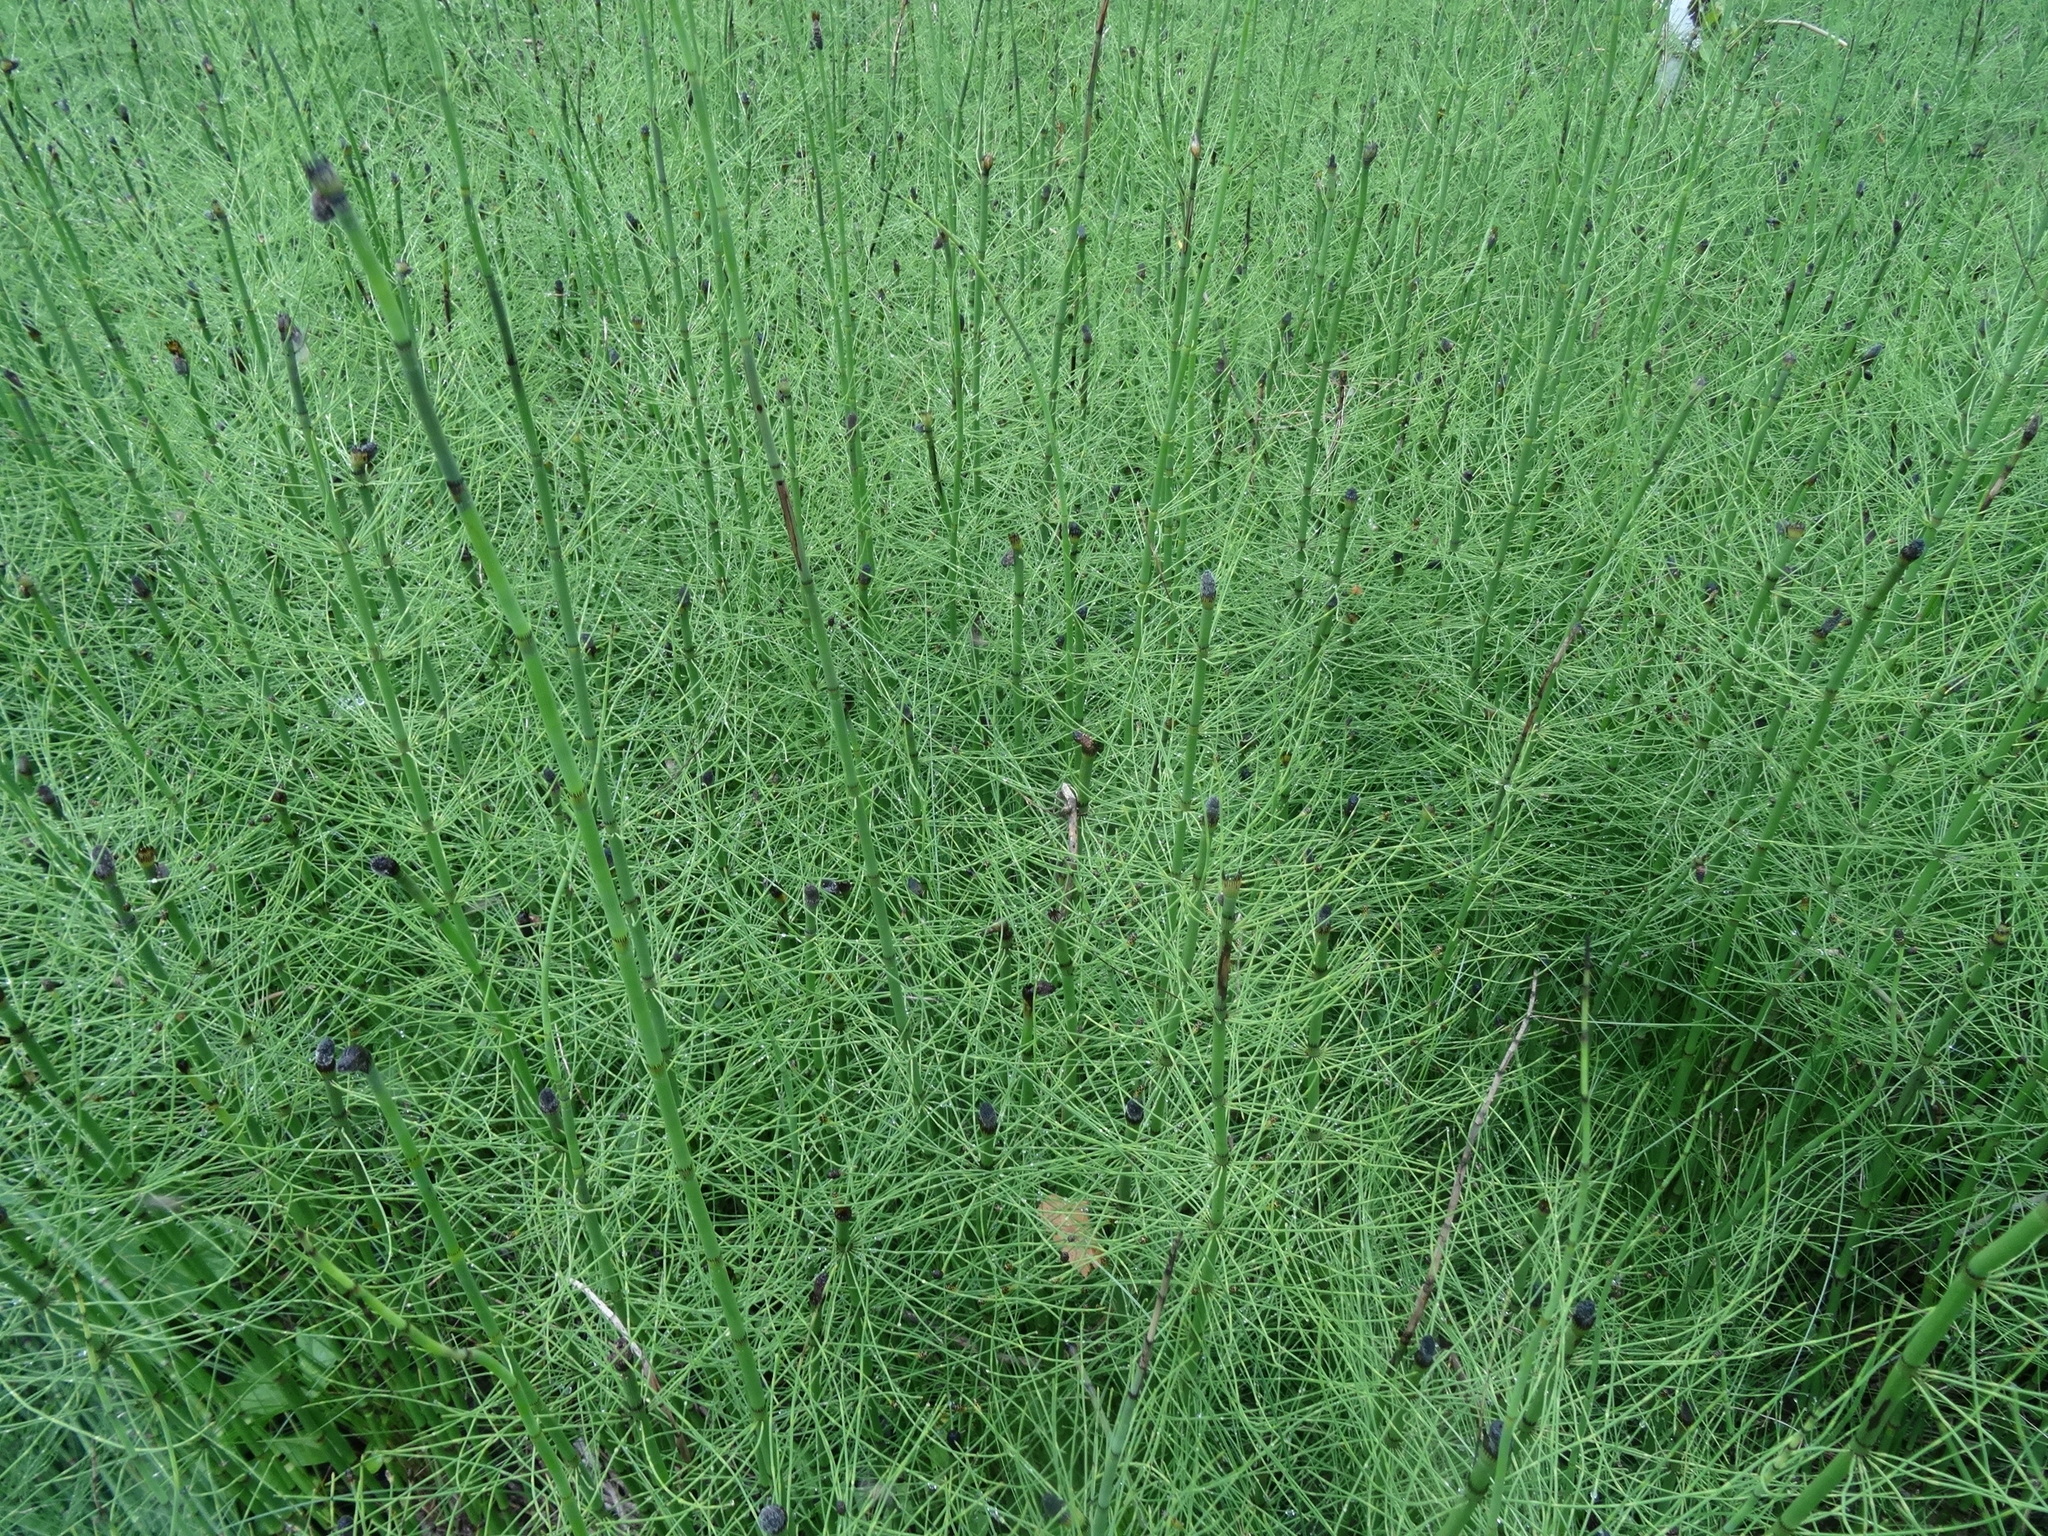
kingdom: Plantae
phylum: Tracheophyta
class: Polypodiopsida
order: Equisetales
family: Equisetaceae
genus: Equisetum
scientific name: Equisetum fluviatile
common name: Water horsetail
